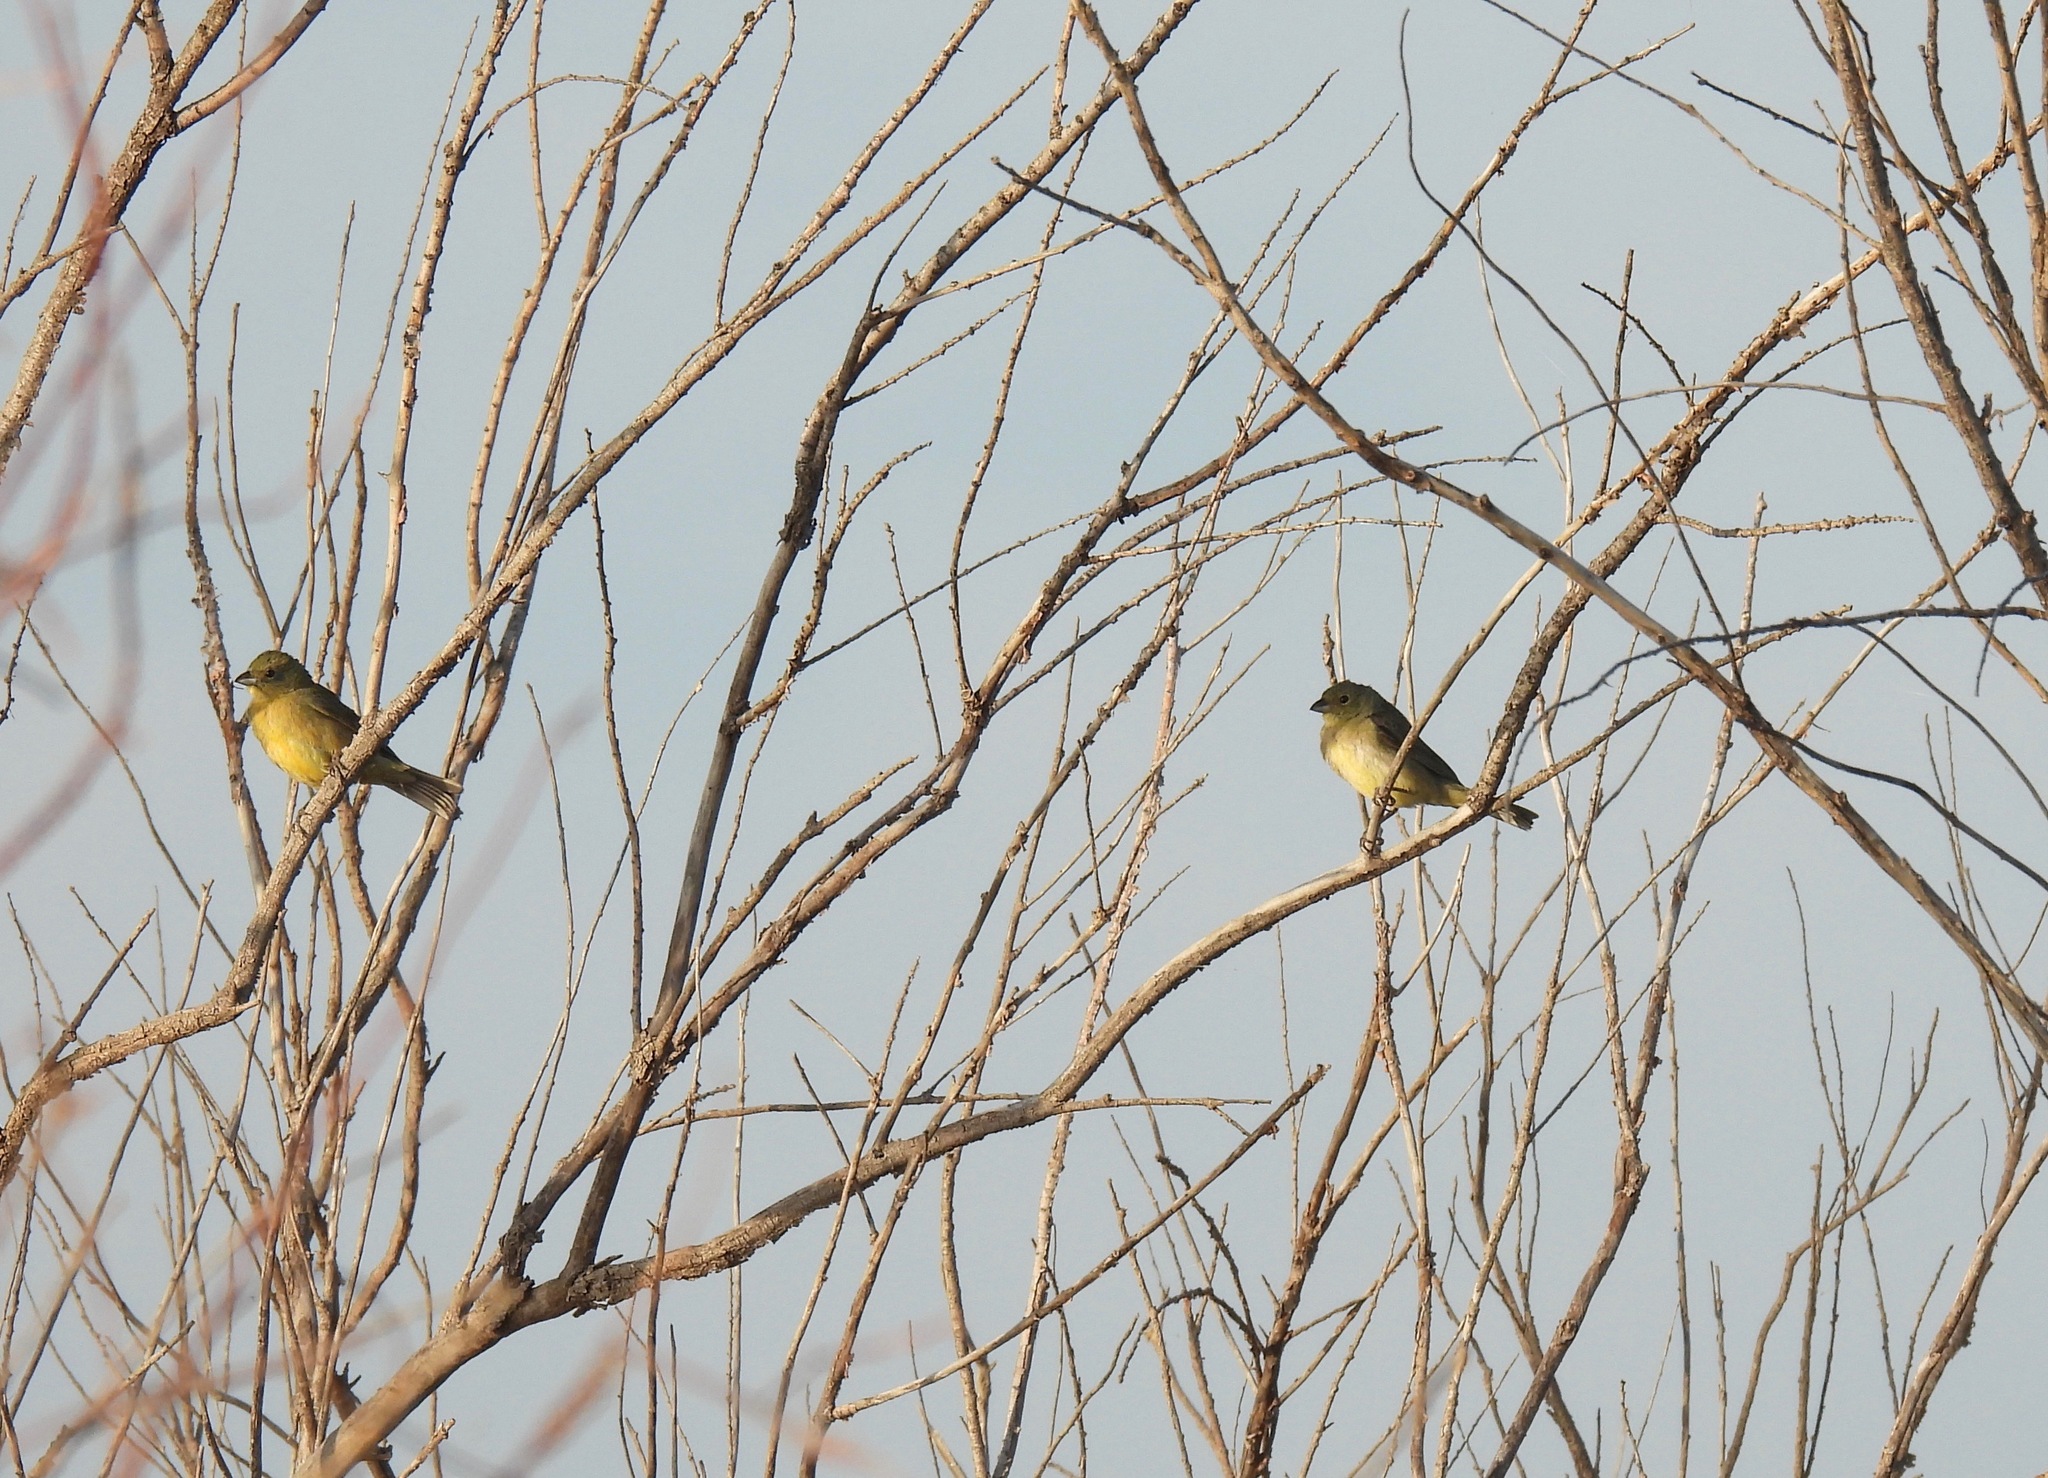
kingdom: Animalia
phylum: Chordata
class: Aves
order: Passeriformes
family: Cardinalidae
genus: Passerina
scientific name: Passerina ciris
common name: Painted bunting
